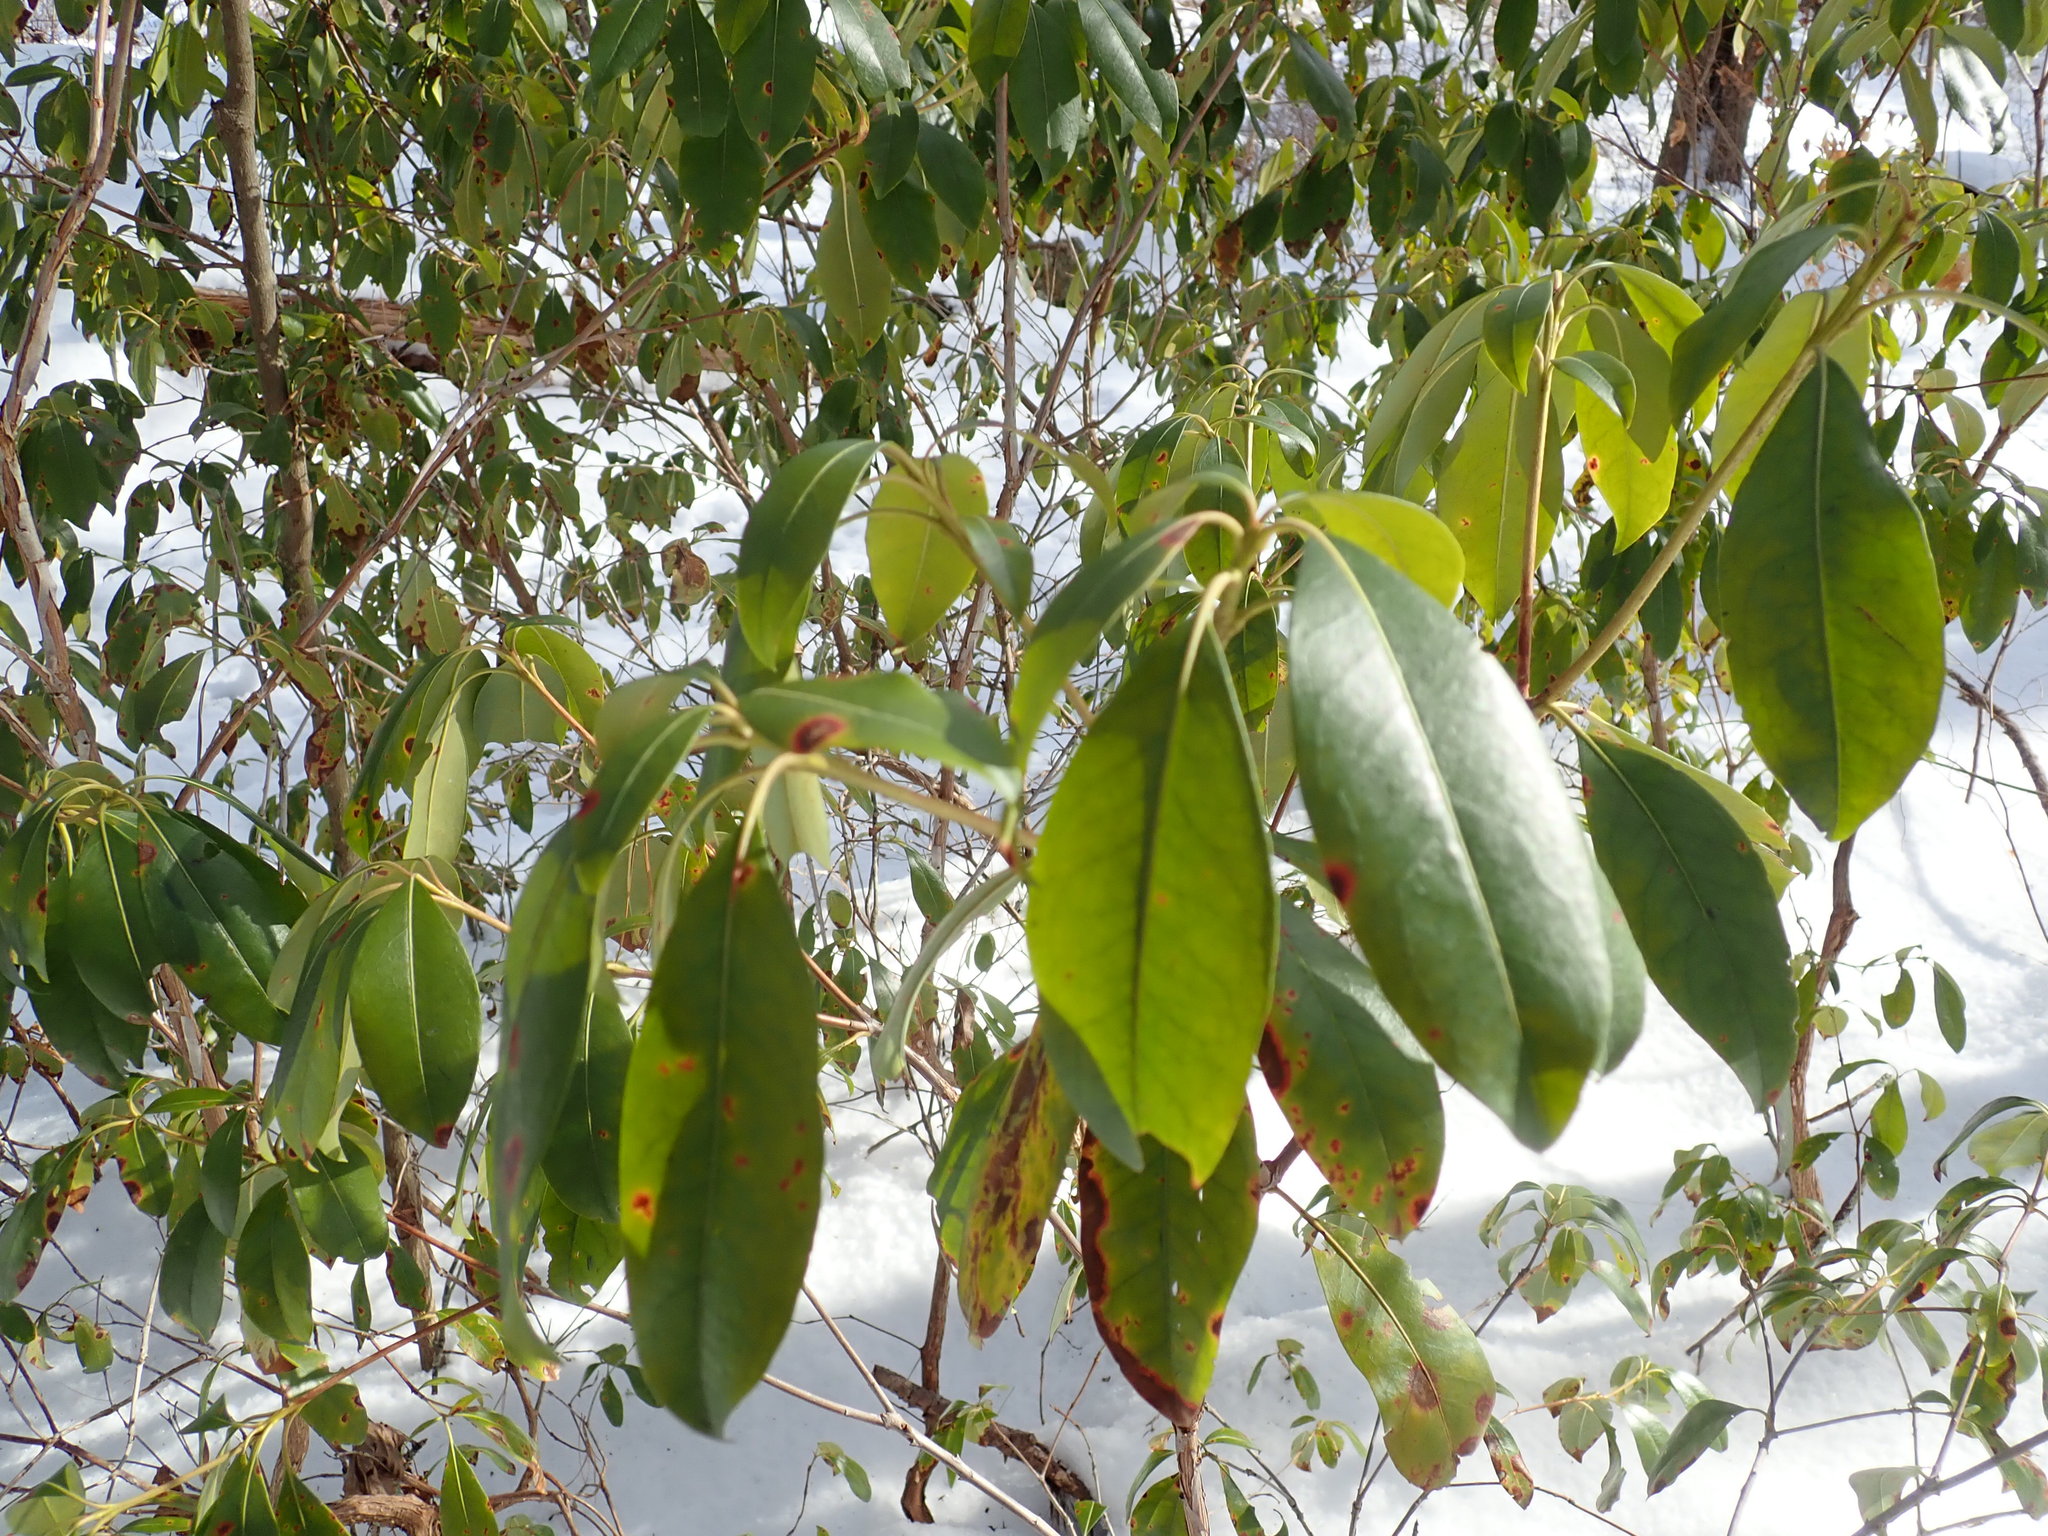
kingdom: Plantae
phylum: Tracheophyta
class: Magnoliopsida
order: Ericales
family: Ericaceae
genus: Kalmia
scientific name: Kalmia latifolia
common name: Mountain-laurel
